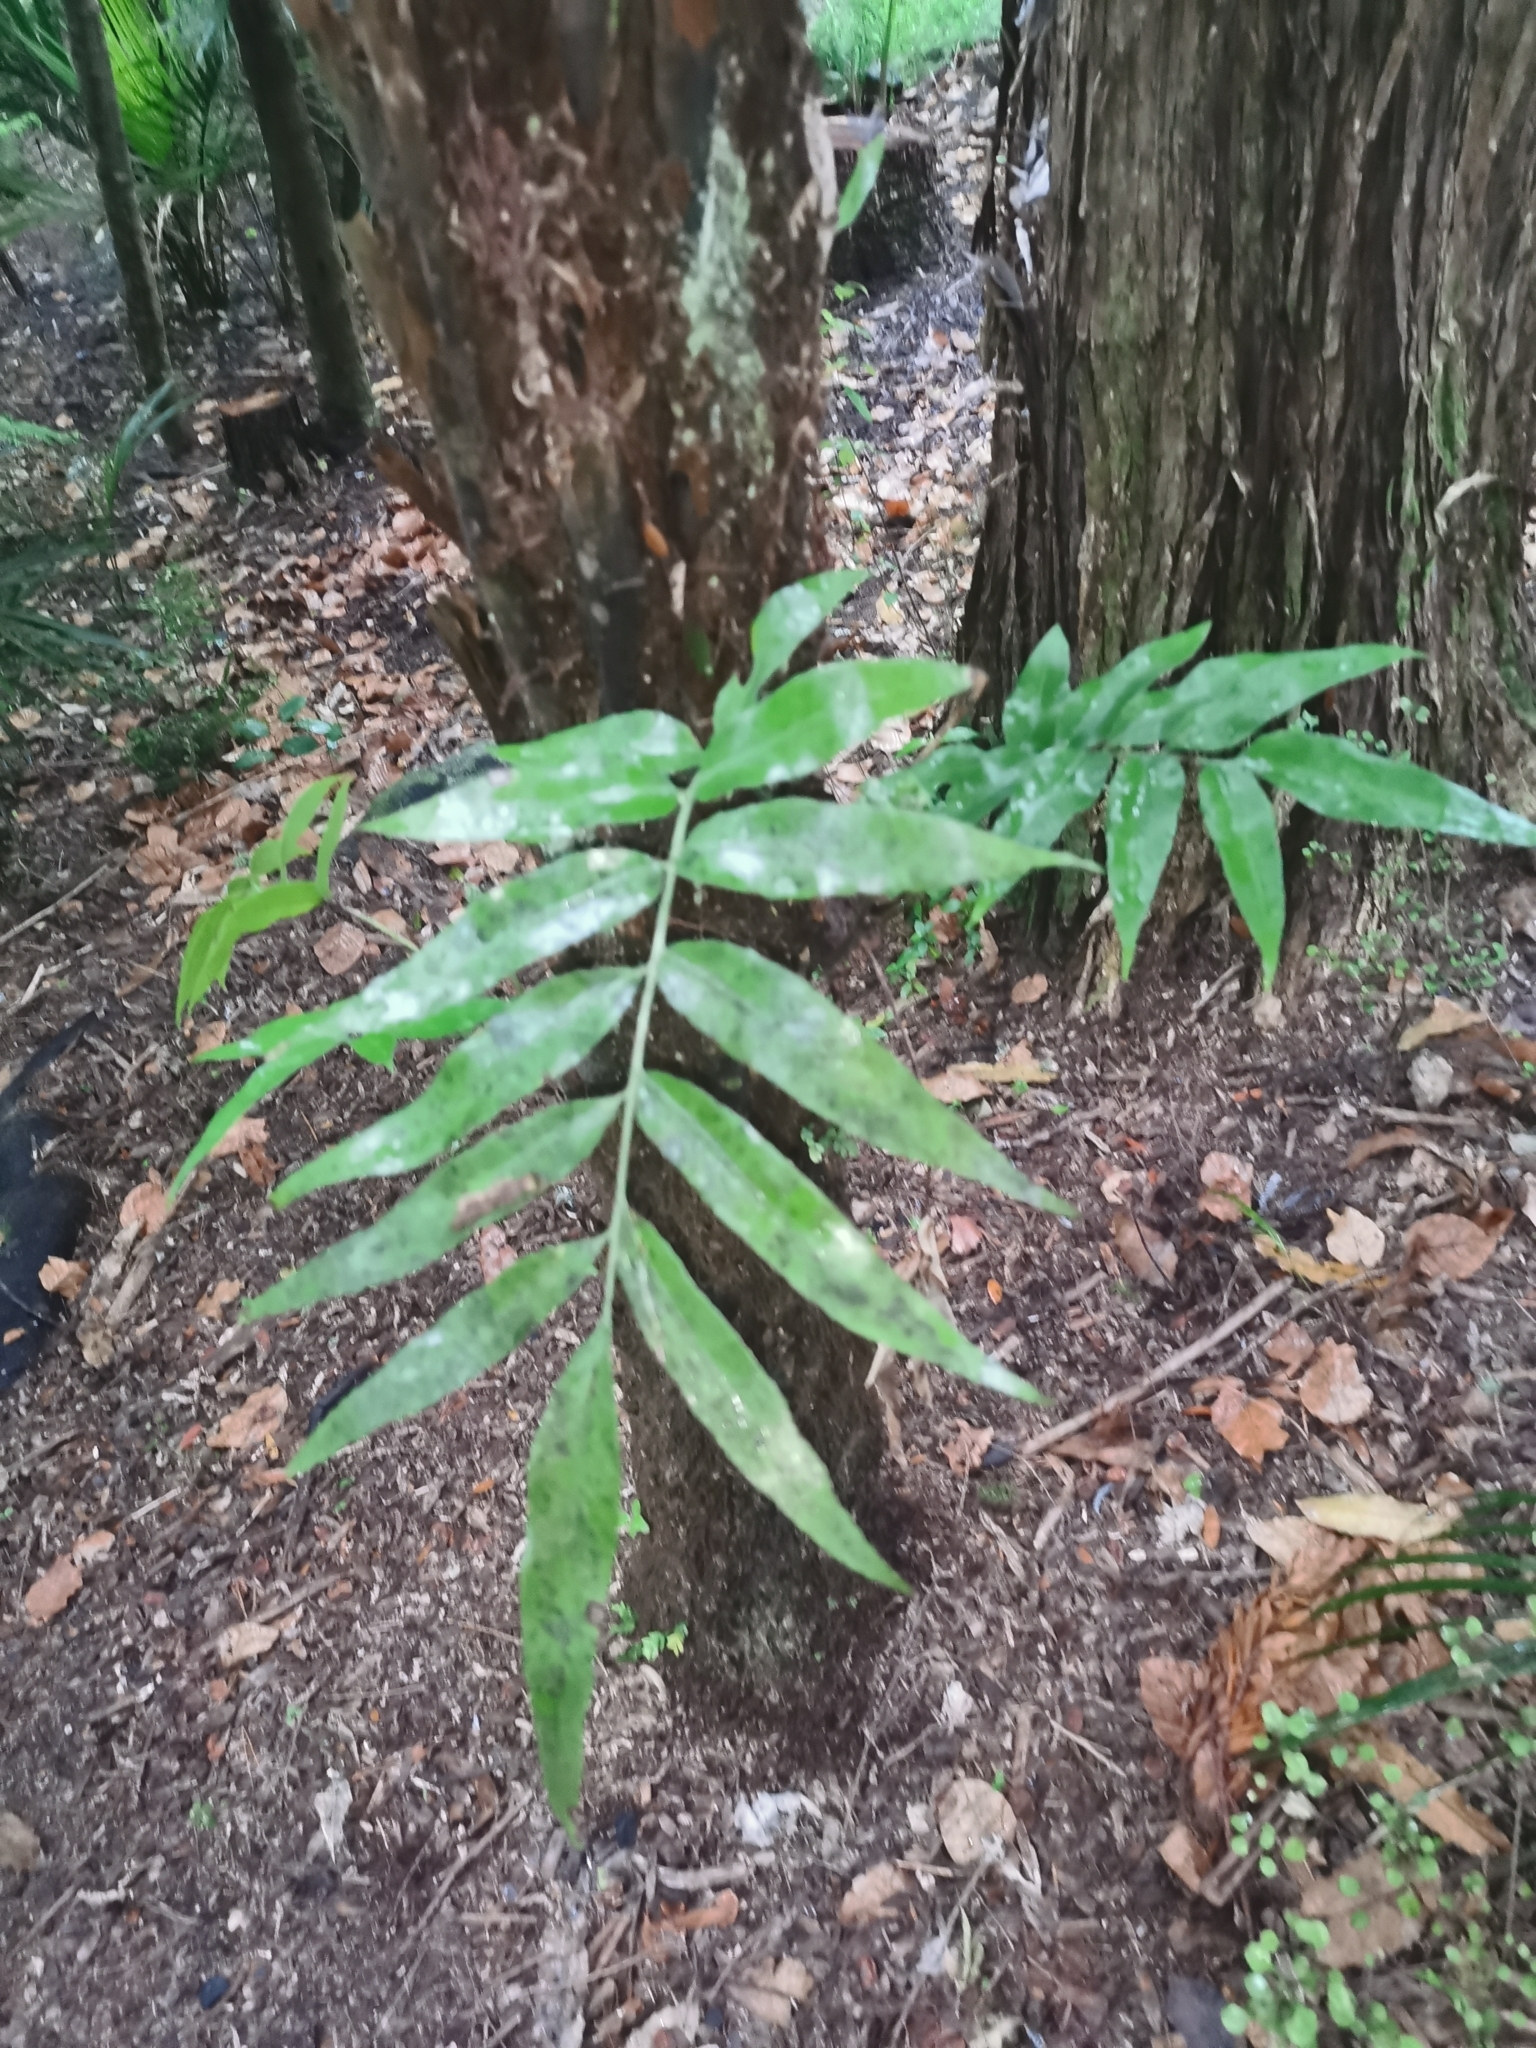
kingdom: Plantae
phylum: Tracheophyta
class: Polypodiopsida
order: Polypodiales
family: Aspleniaceae
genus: Asplenium
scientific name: Asplenium oblongifolium
